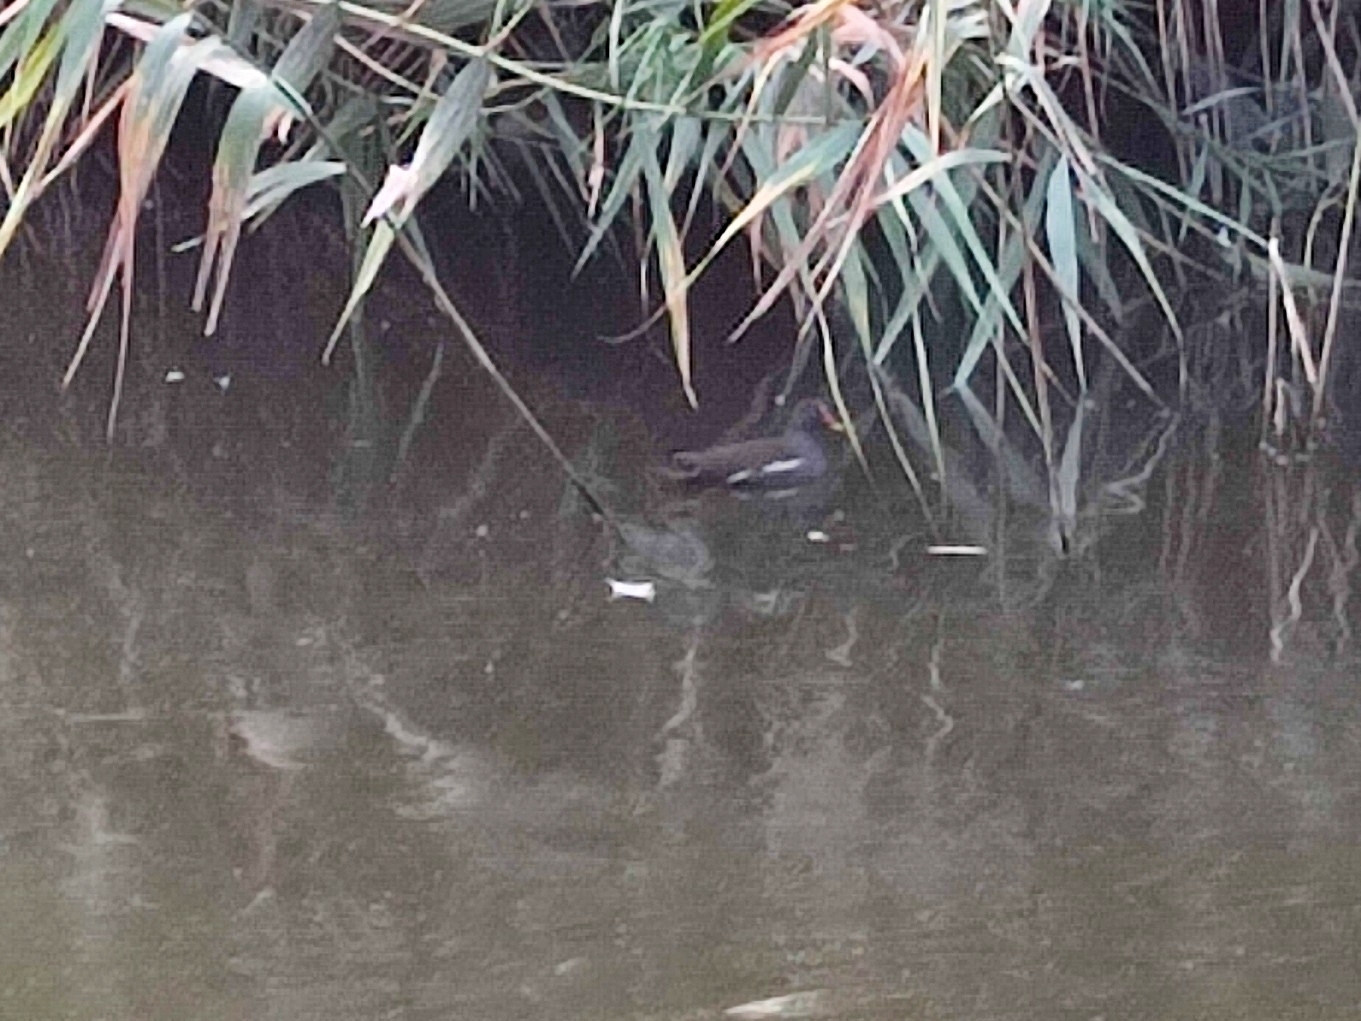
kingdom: Animalia
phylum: Chordata
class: Aves
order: Gruiformes
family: Rallidae
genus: Gallinula
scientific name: Gallinula chloropus
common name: Common moorhen
